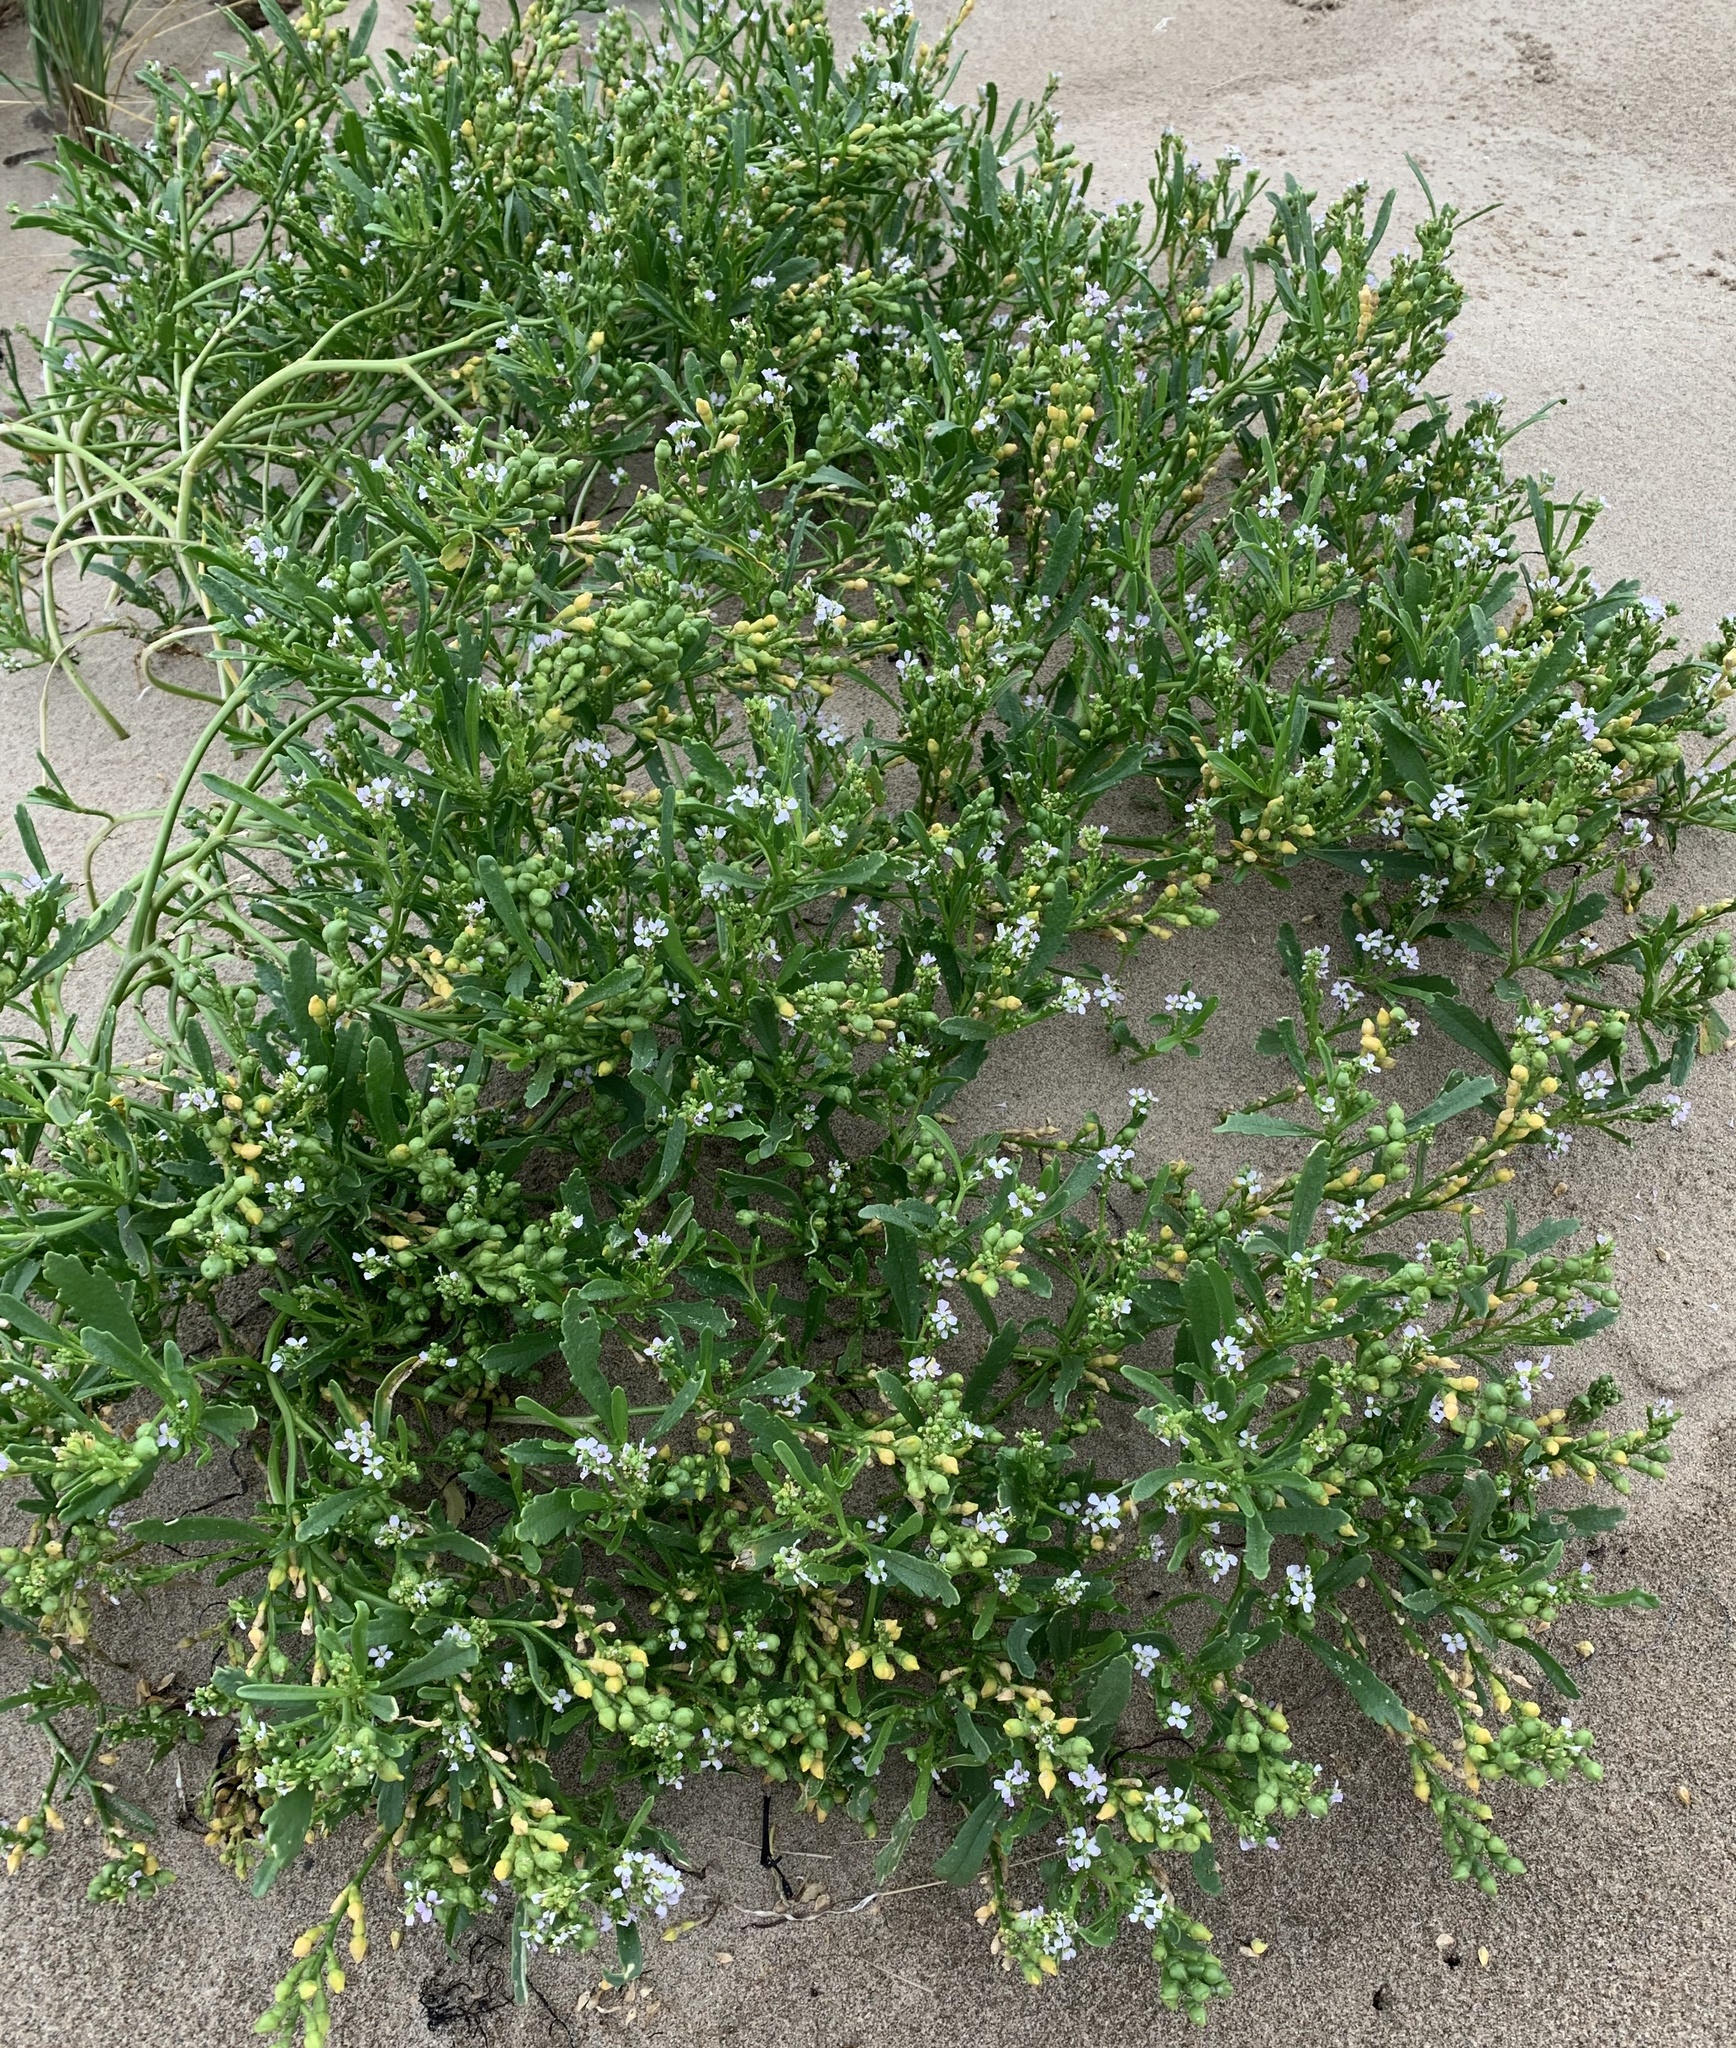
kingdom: Plantae
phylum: Tracheophyta
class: Magnoliopsida
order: Brassicales
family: Brassicaceae
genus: Cakile
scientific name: Cakile edentula
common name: American sea rocket
